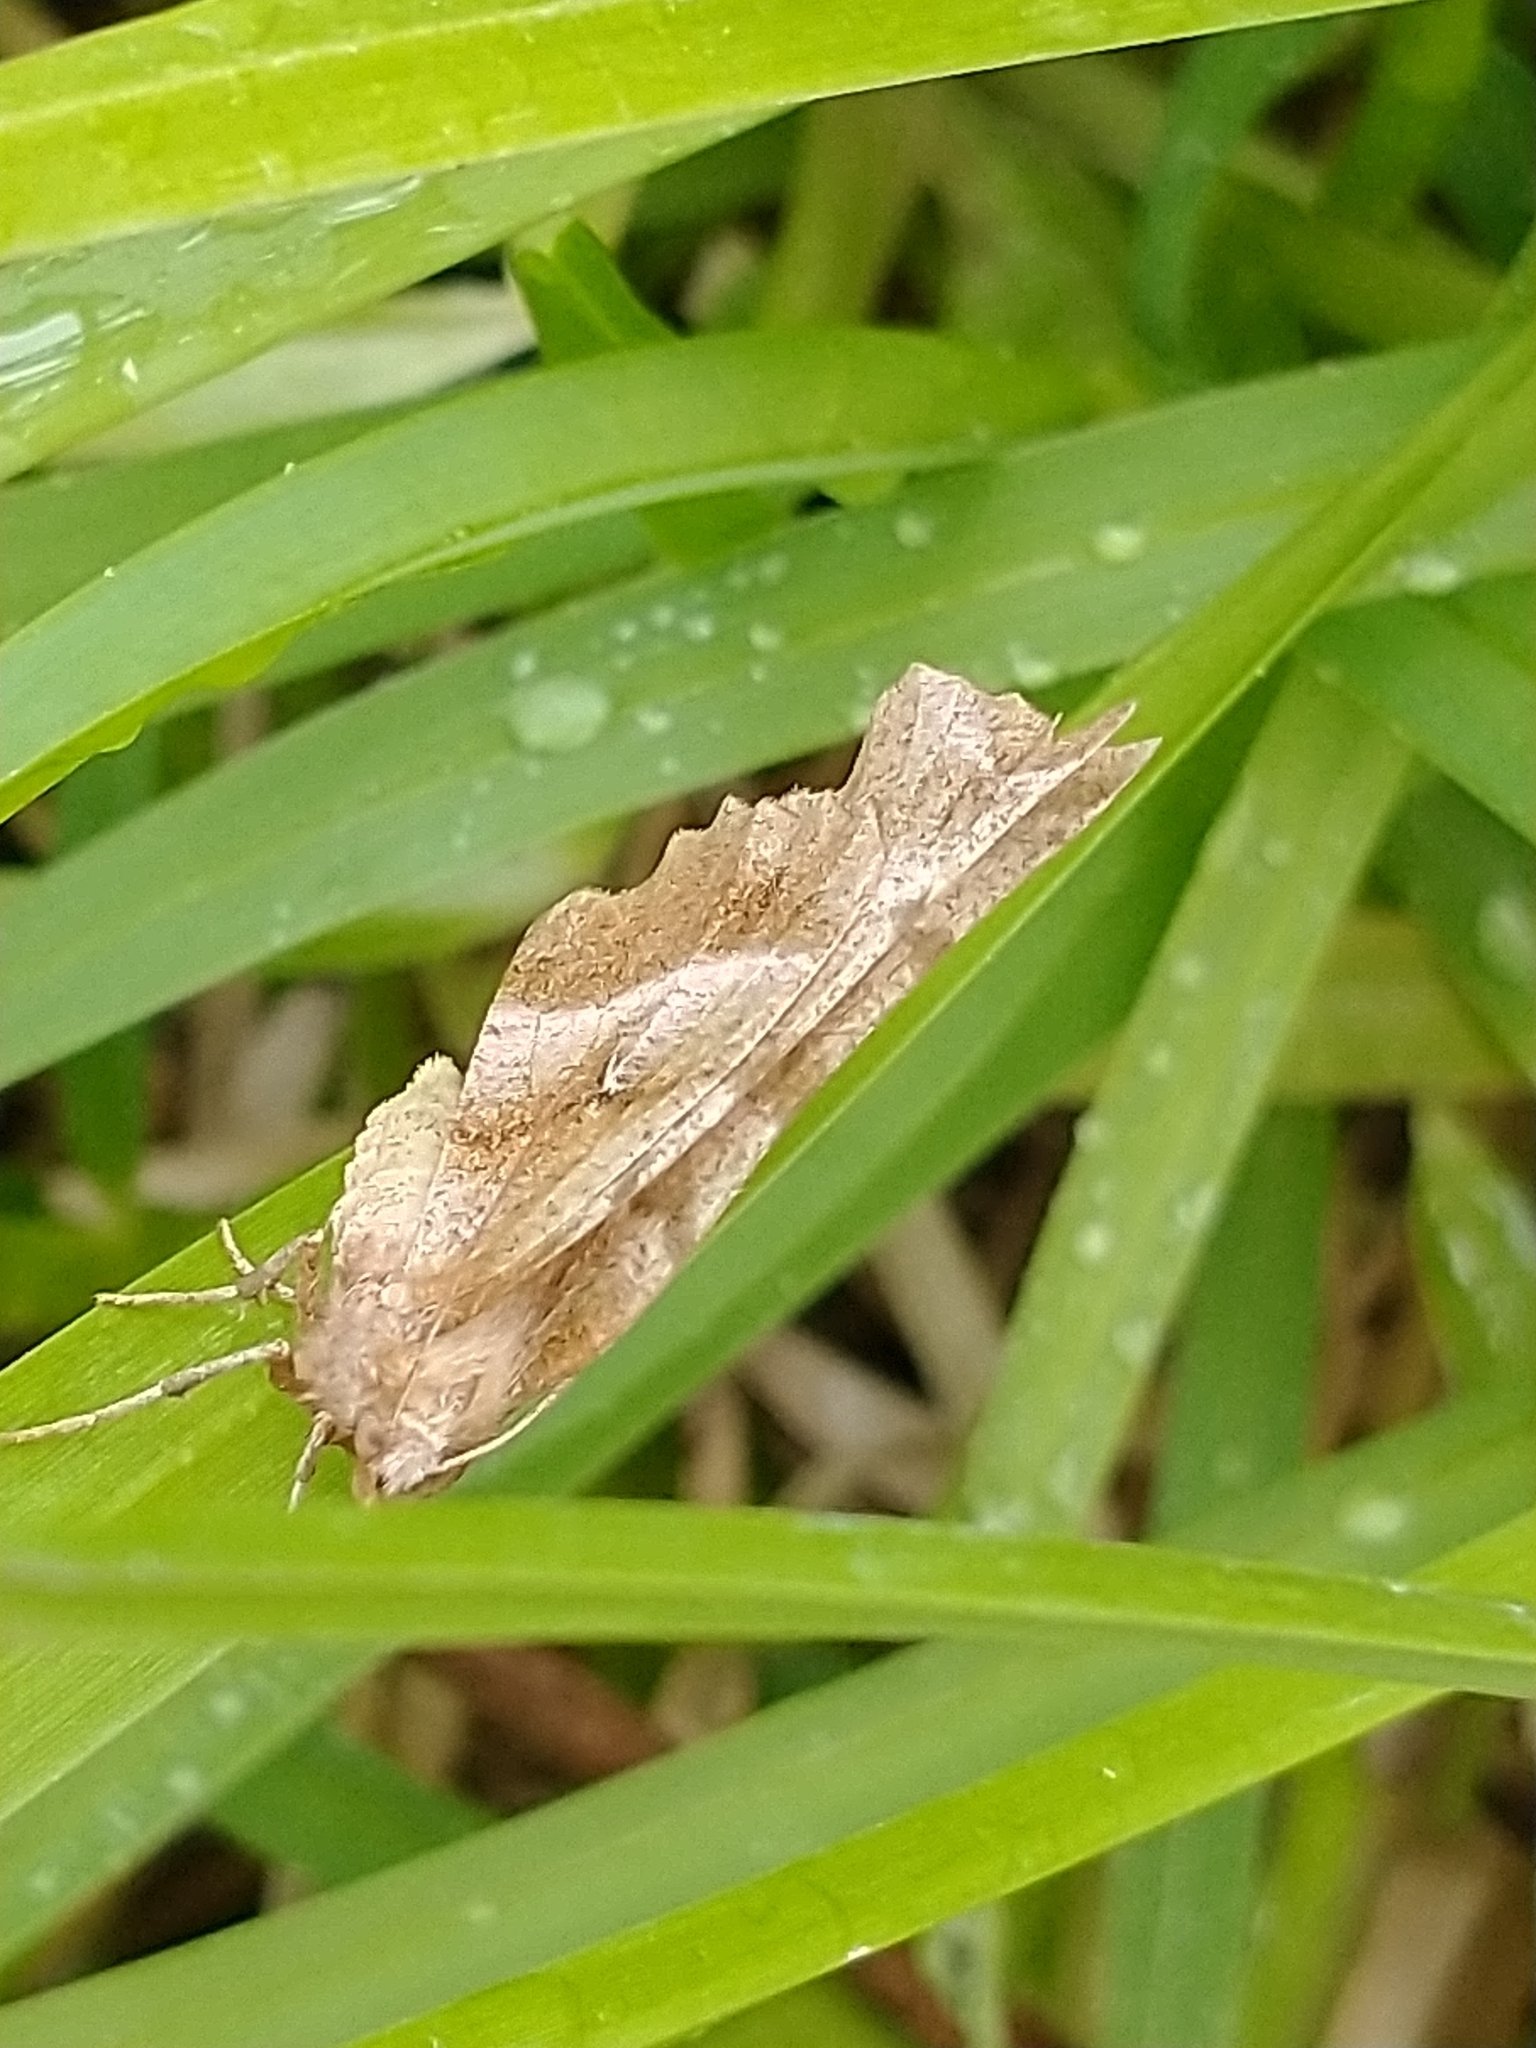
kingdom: Animalia
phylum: Arthropoda
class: Insecta
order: Lepidoptera
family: Geometridae
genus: Selenia
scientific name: Selenia dentaria
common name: Early thorn
